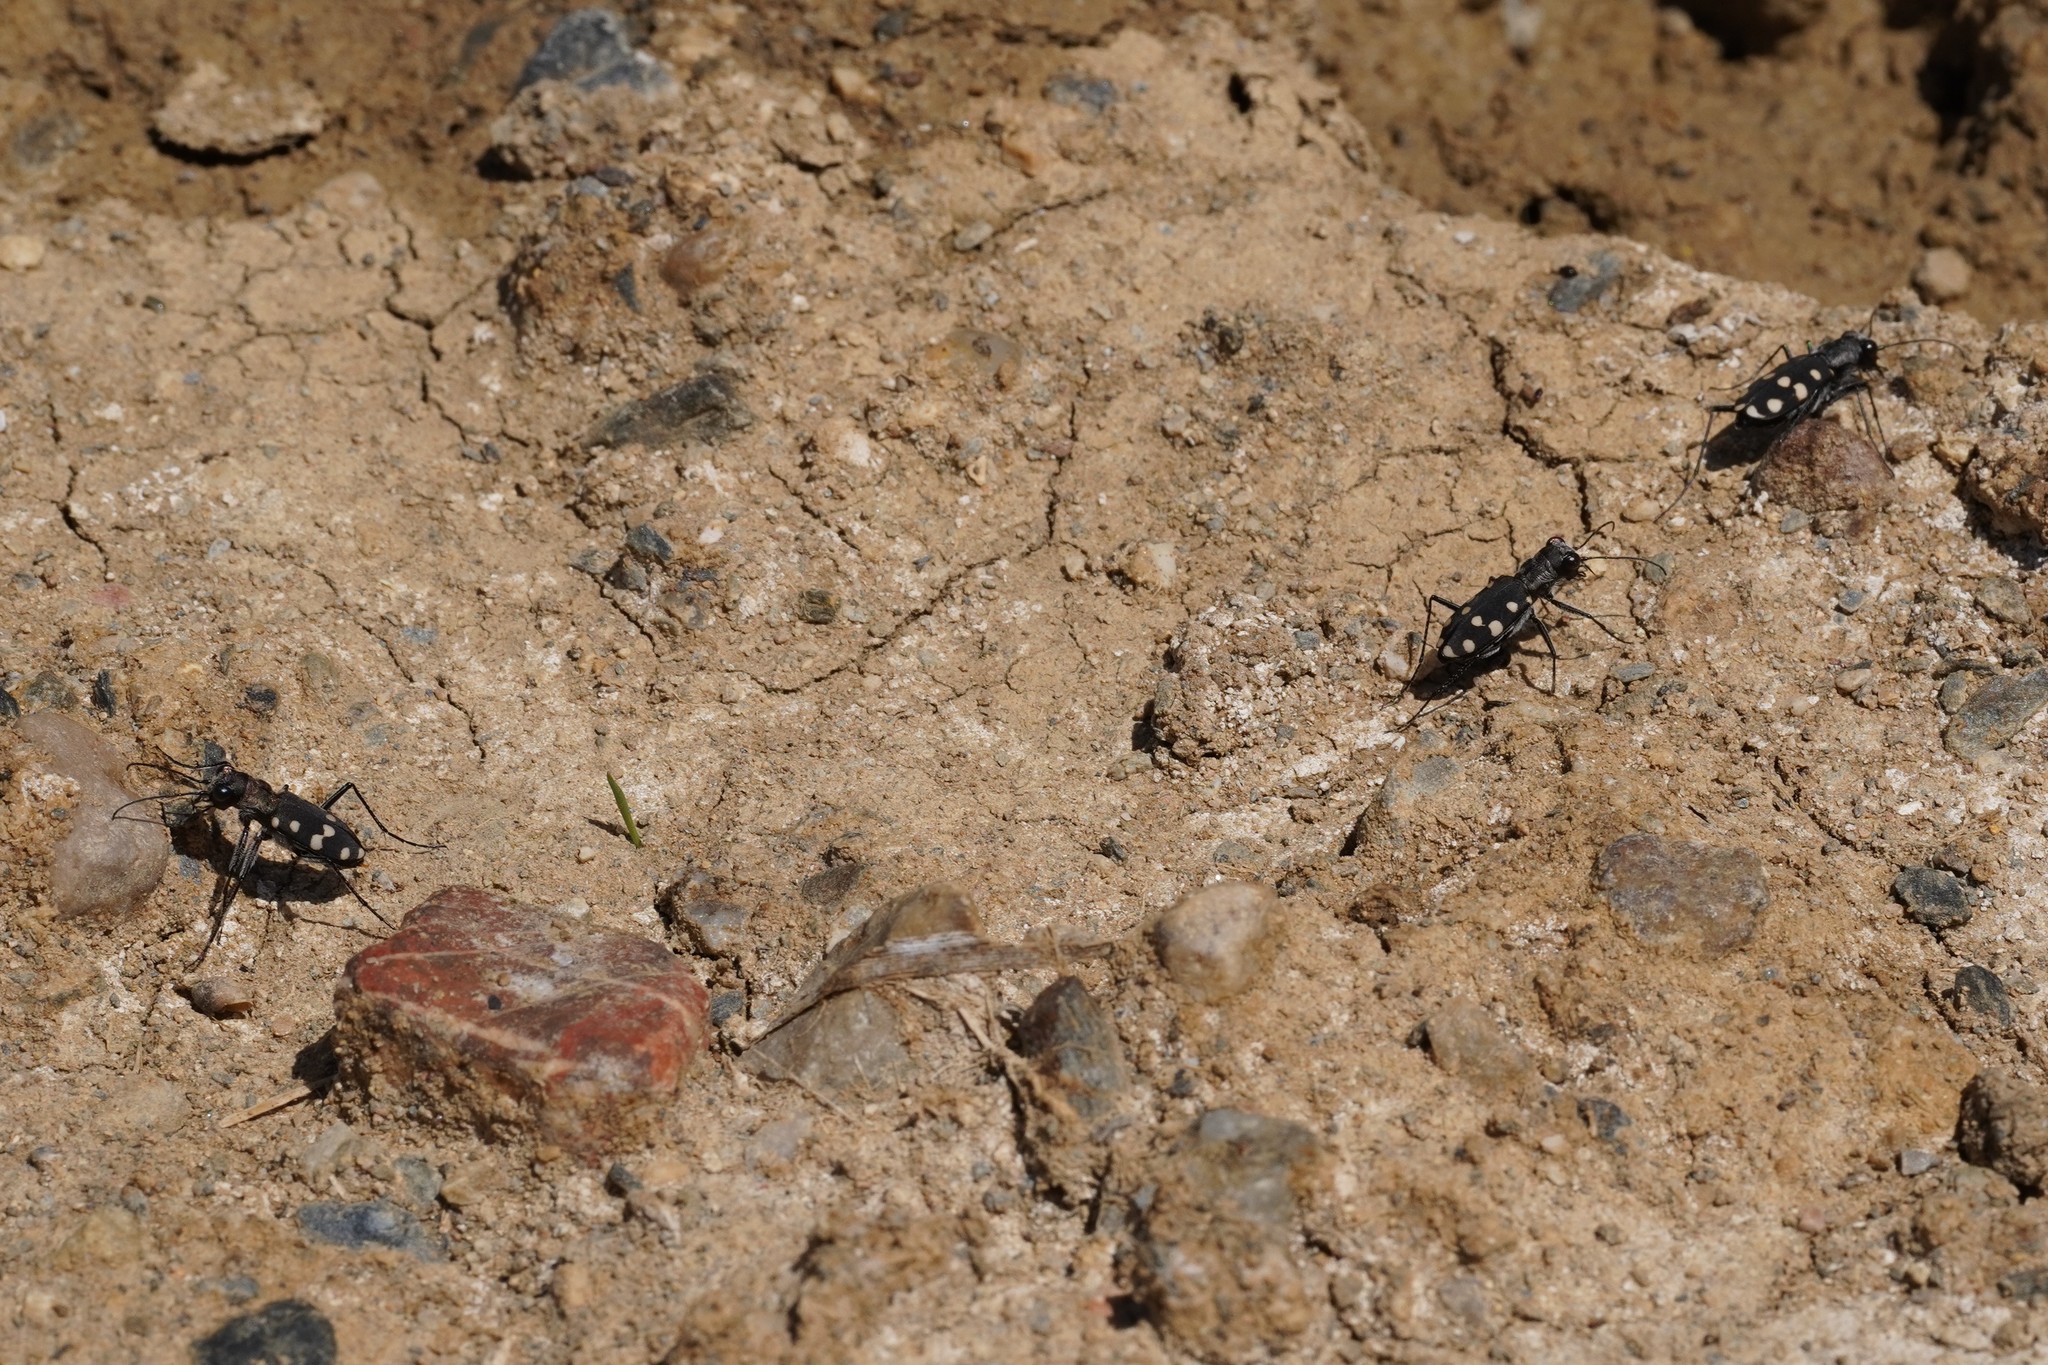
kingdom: Animalia
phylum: Arthropoda
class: Insecta
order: Coleoptera
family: Carabidae
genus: Cephalota
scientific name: Cephalota maura
